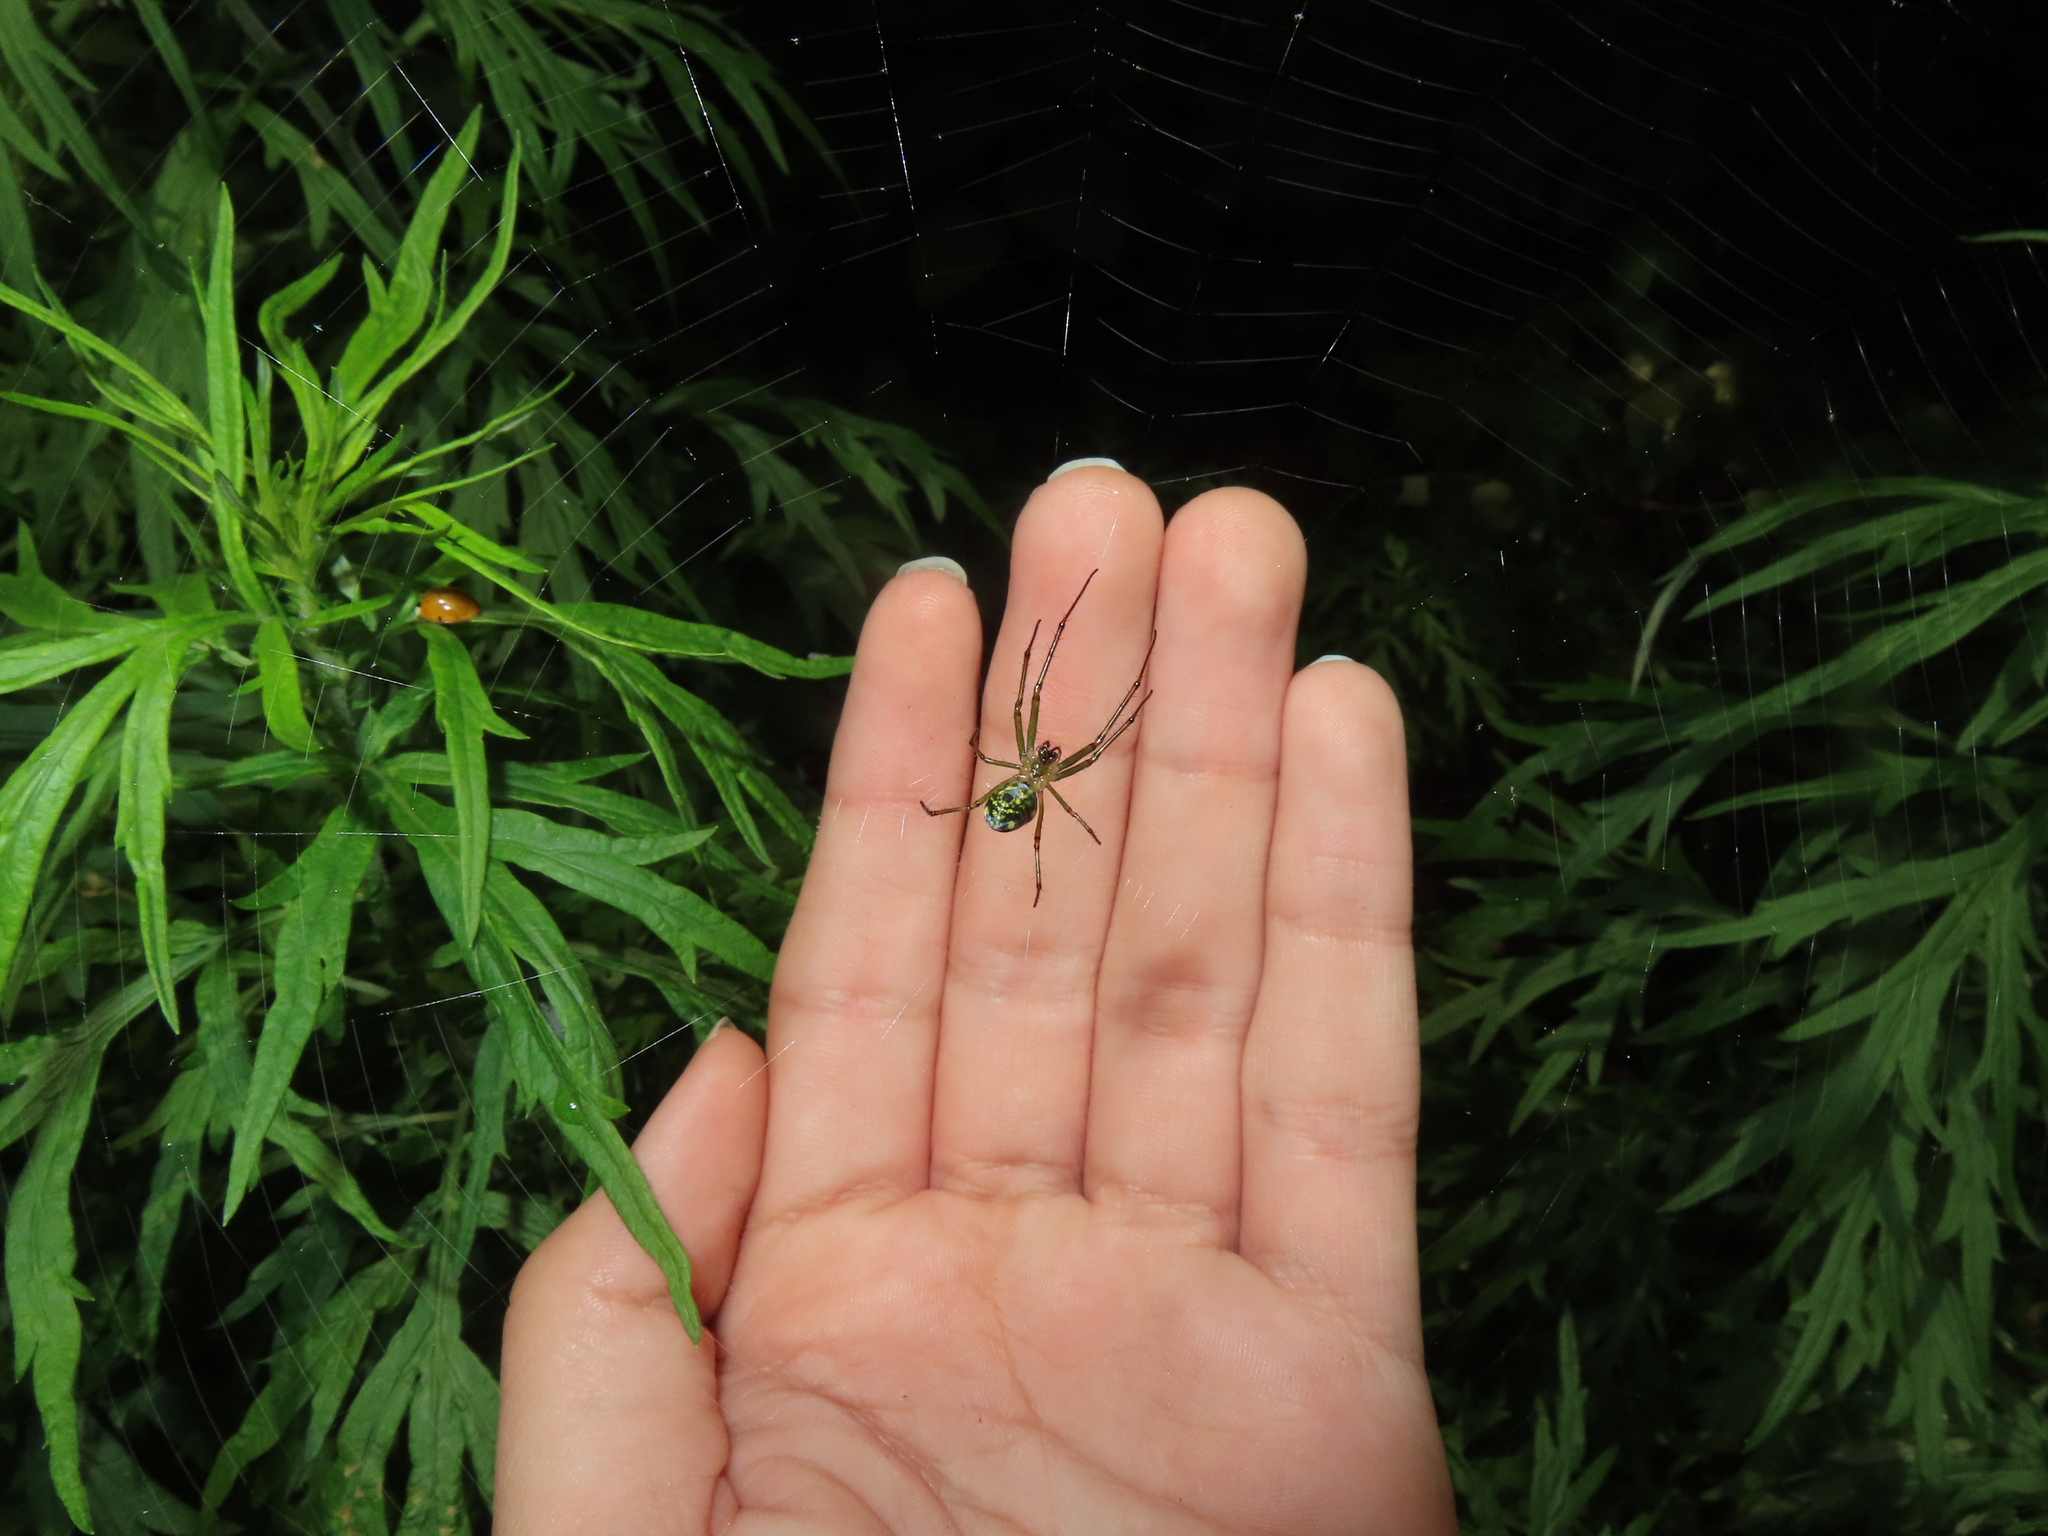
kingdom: Animalia
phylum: Arthropoda
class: Arachnida
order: Araneae
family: Tetragnathidae
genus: Leucauge
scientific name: Leucauge venusta
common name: Longjawed orb weavers
